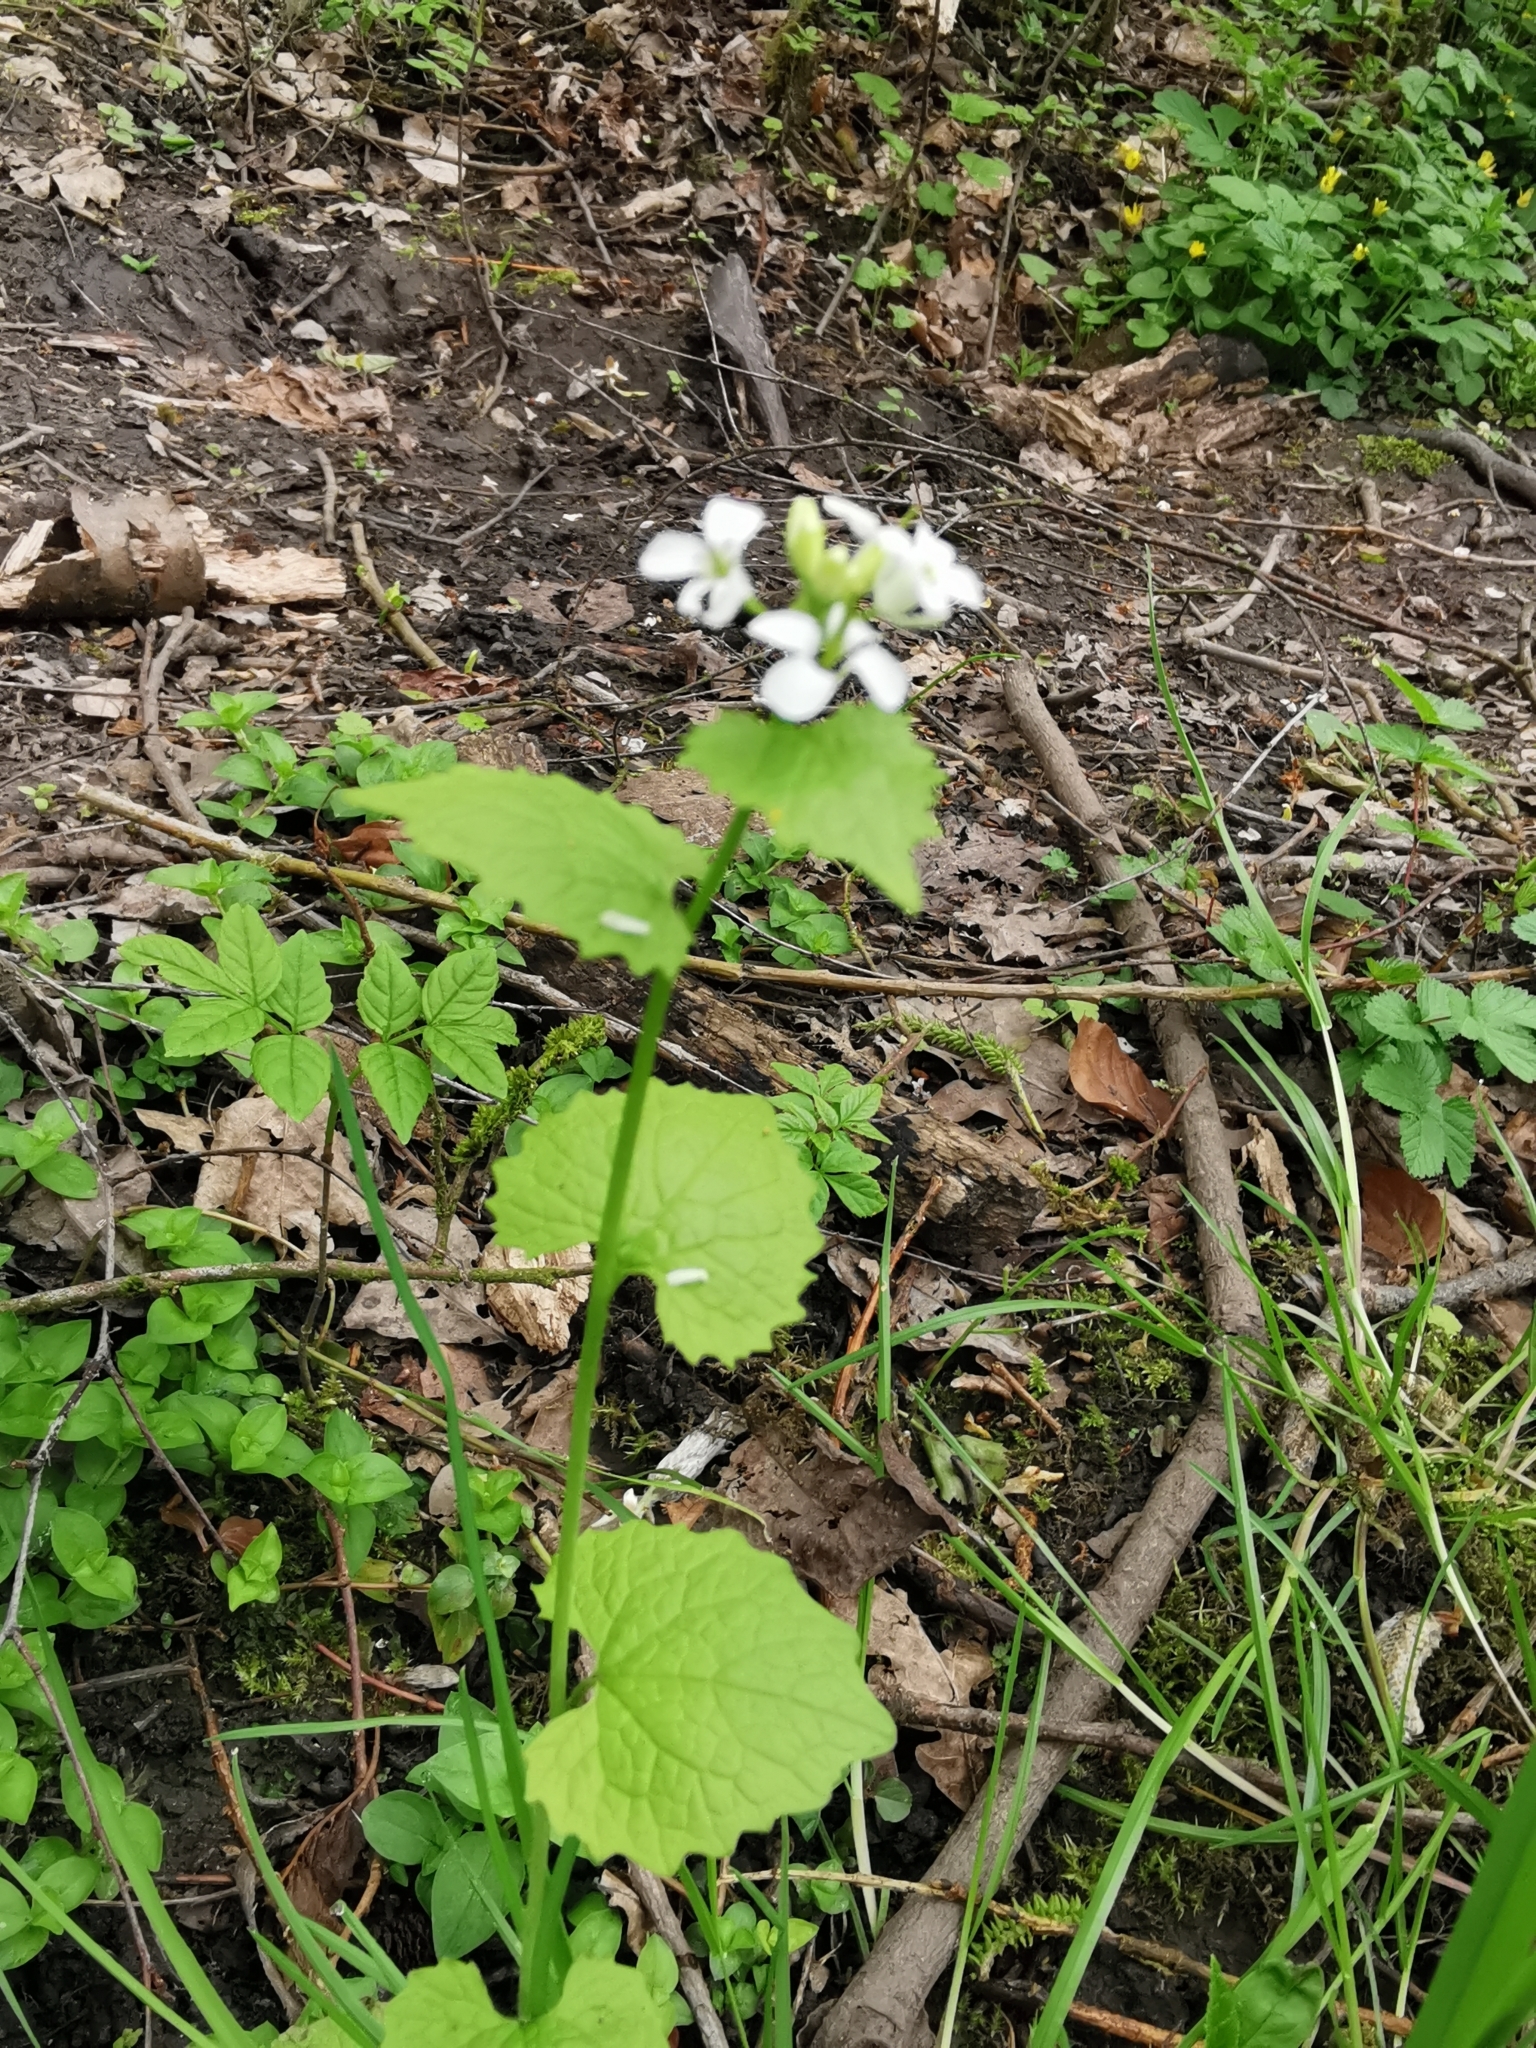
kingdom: Plantae
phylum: Tracheophyta
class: Magnoliopsida
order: Brassicales
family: Brassicaceae
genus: Alliaria
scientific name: Alliaria petiolata
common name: Garlic mustard
